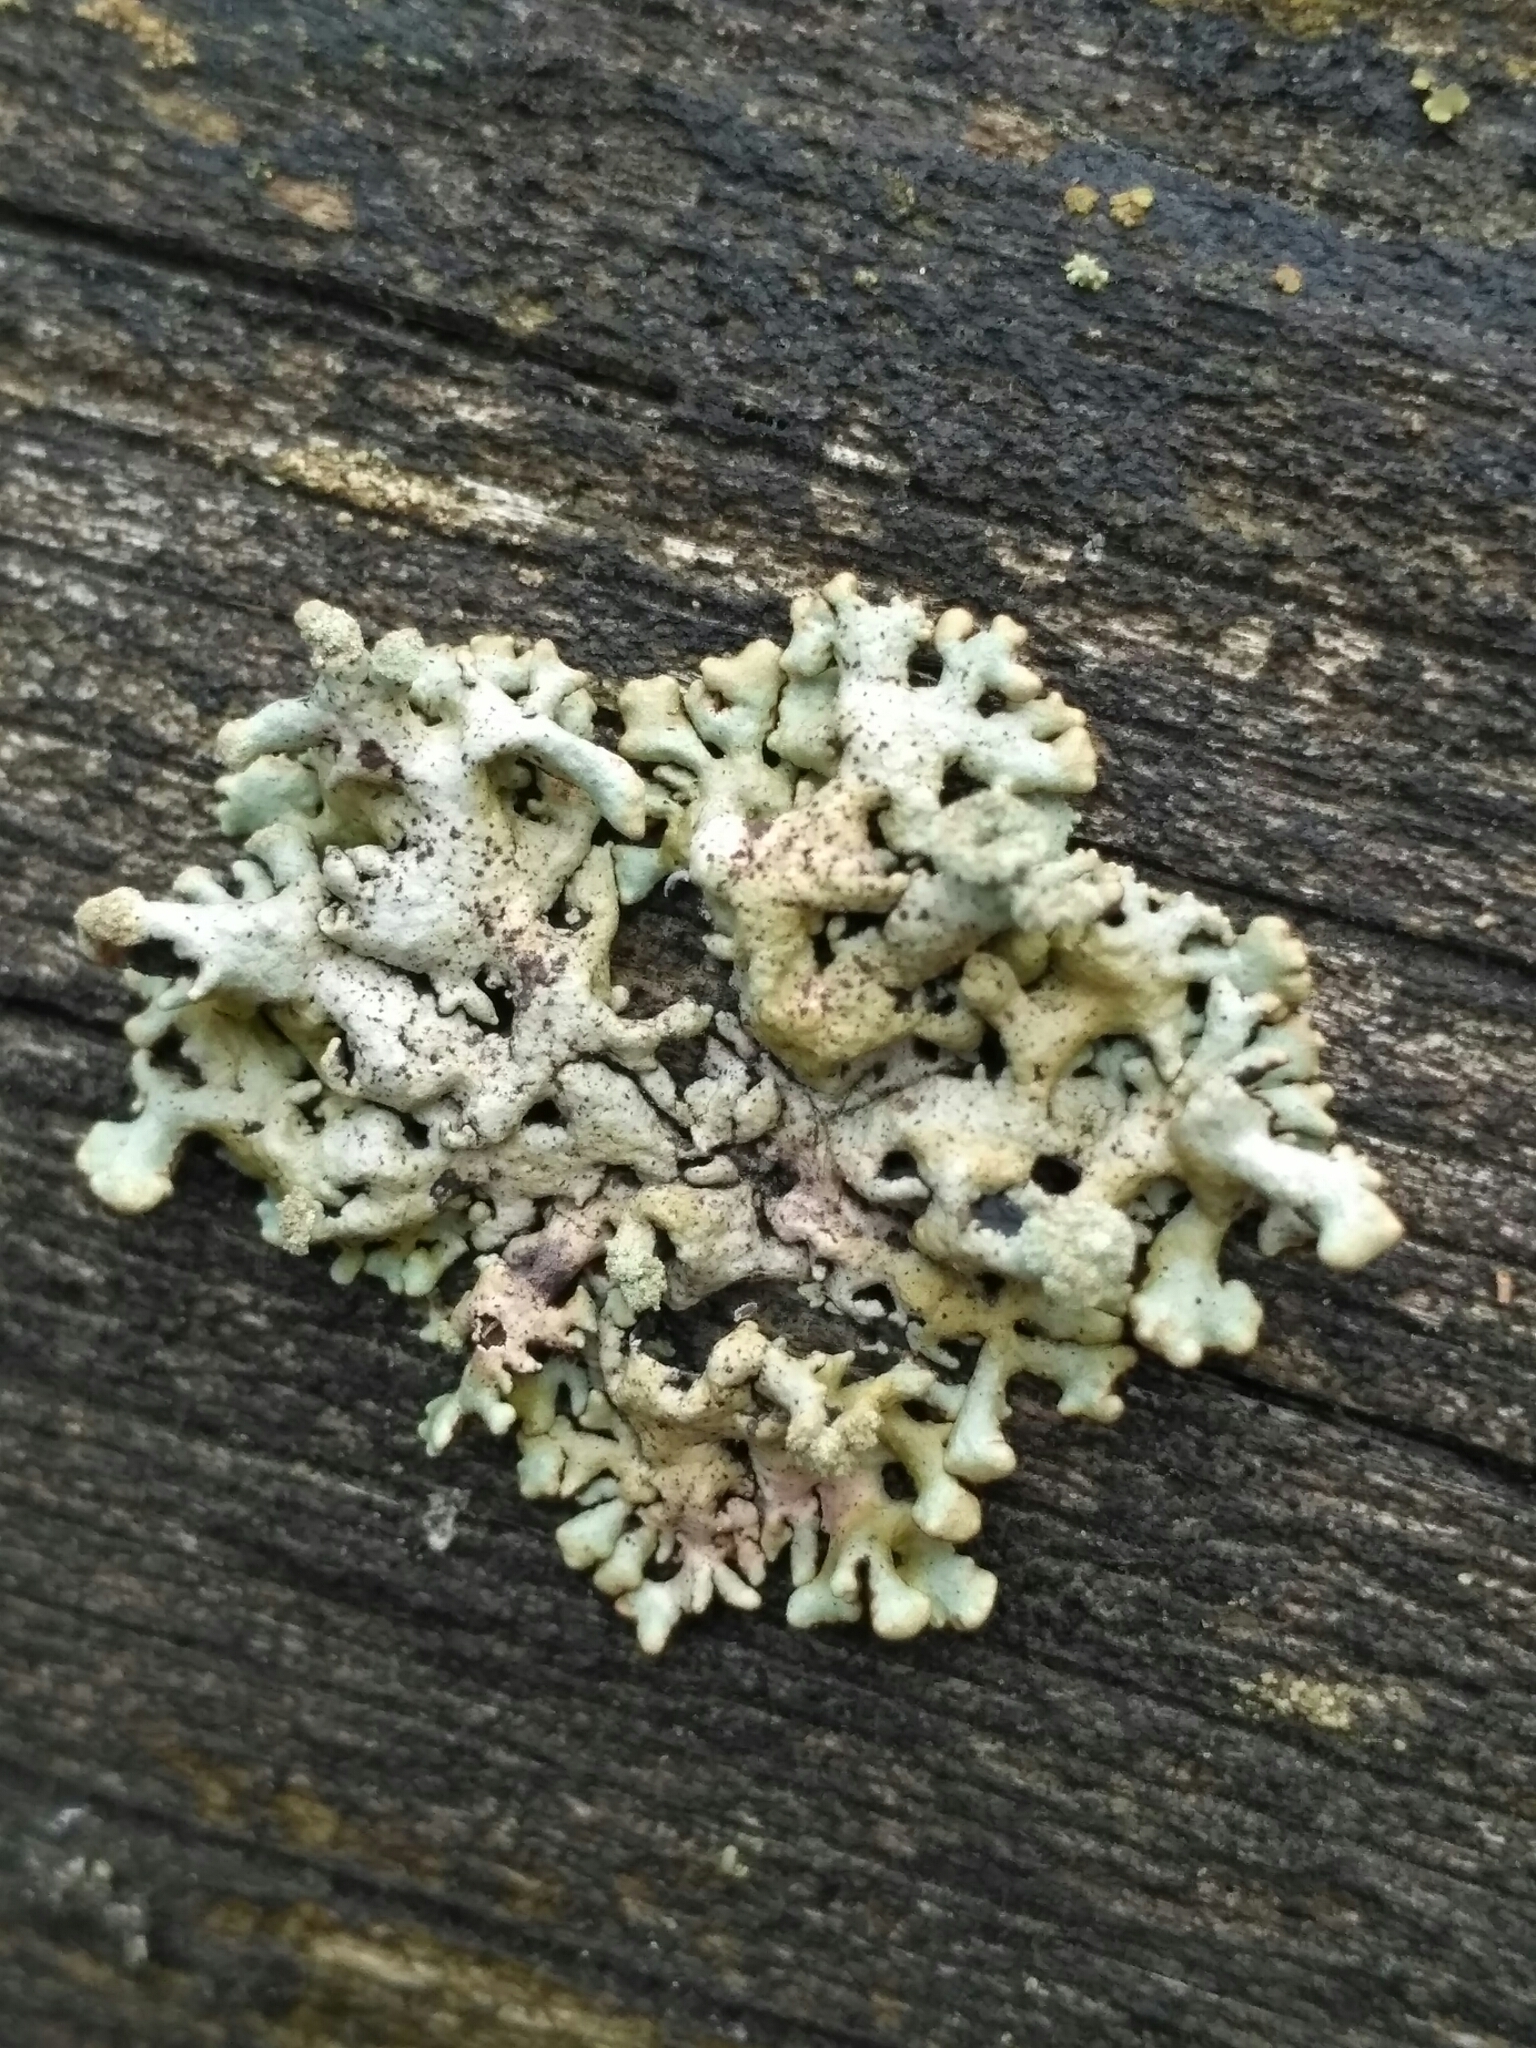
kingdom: Fungi
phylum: Ascomycota
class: Lecanoromycetes
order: Lecanorales
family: Parmeliaceae
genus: Hypogymnia
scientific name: Hypogymnia tubulosa
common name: Powder-headed tube lichen
